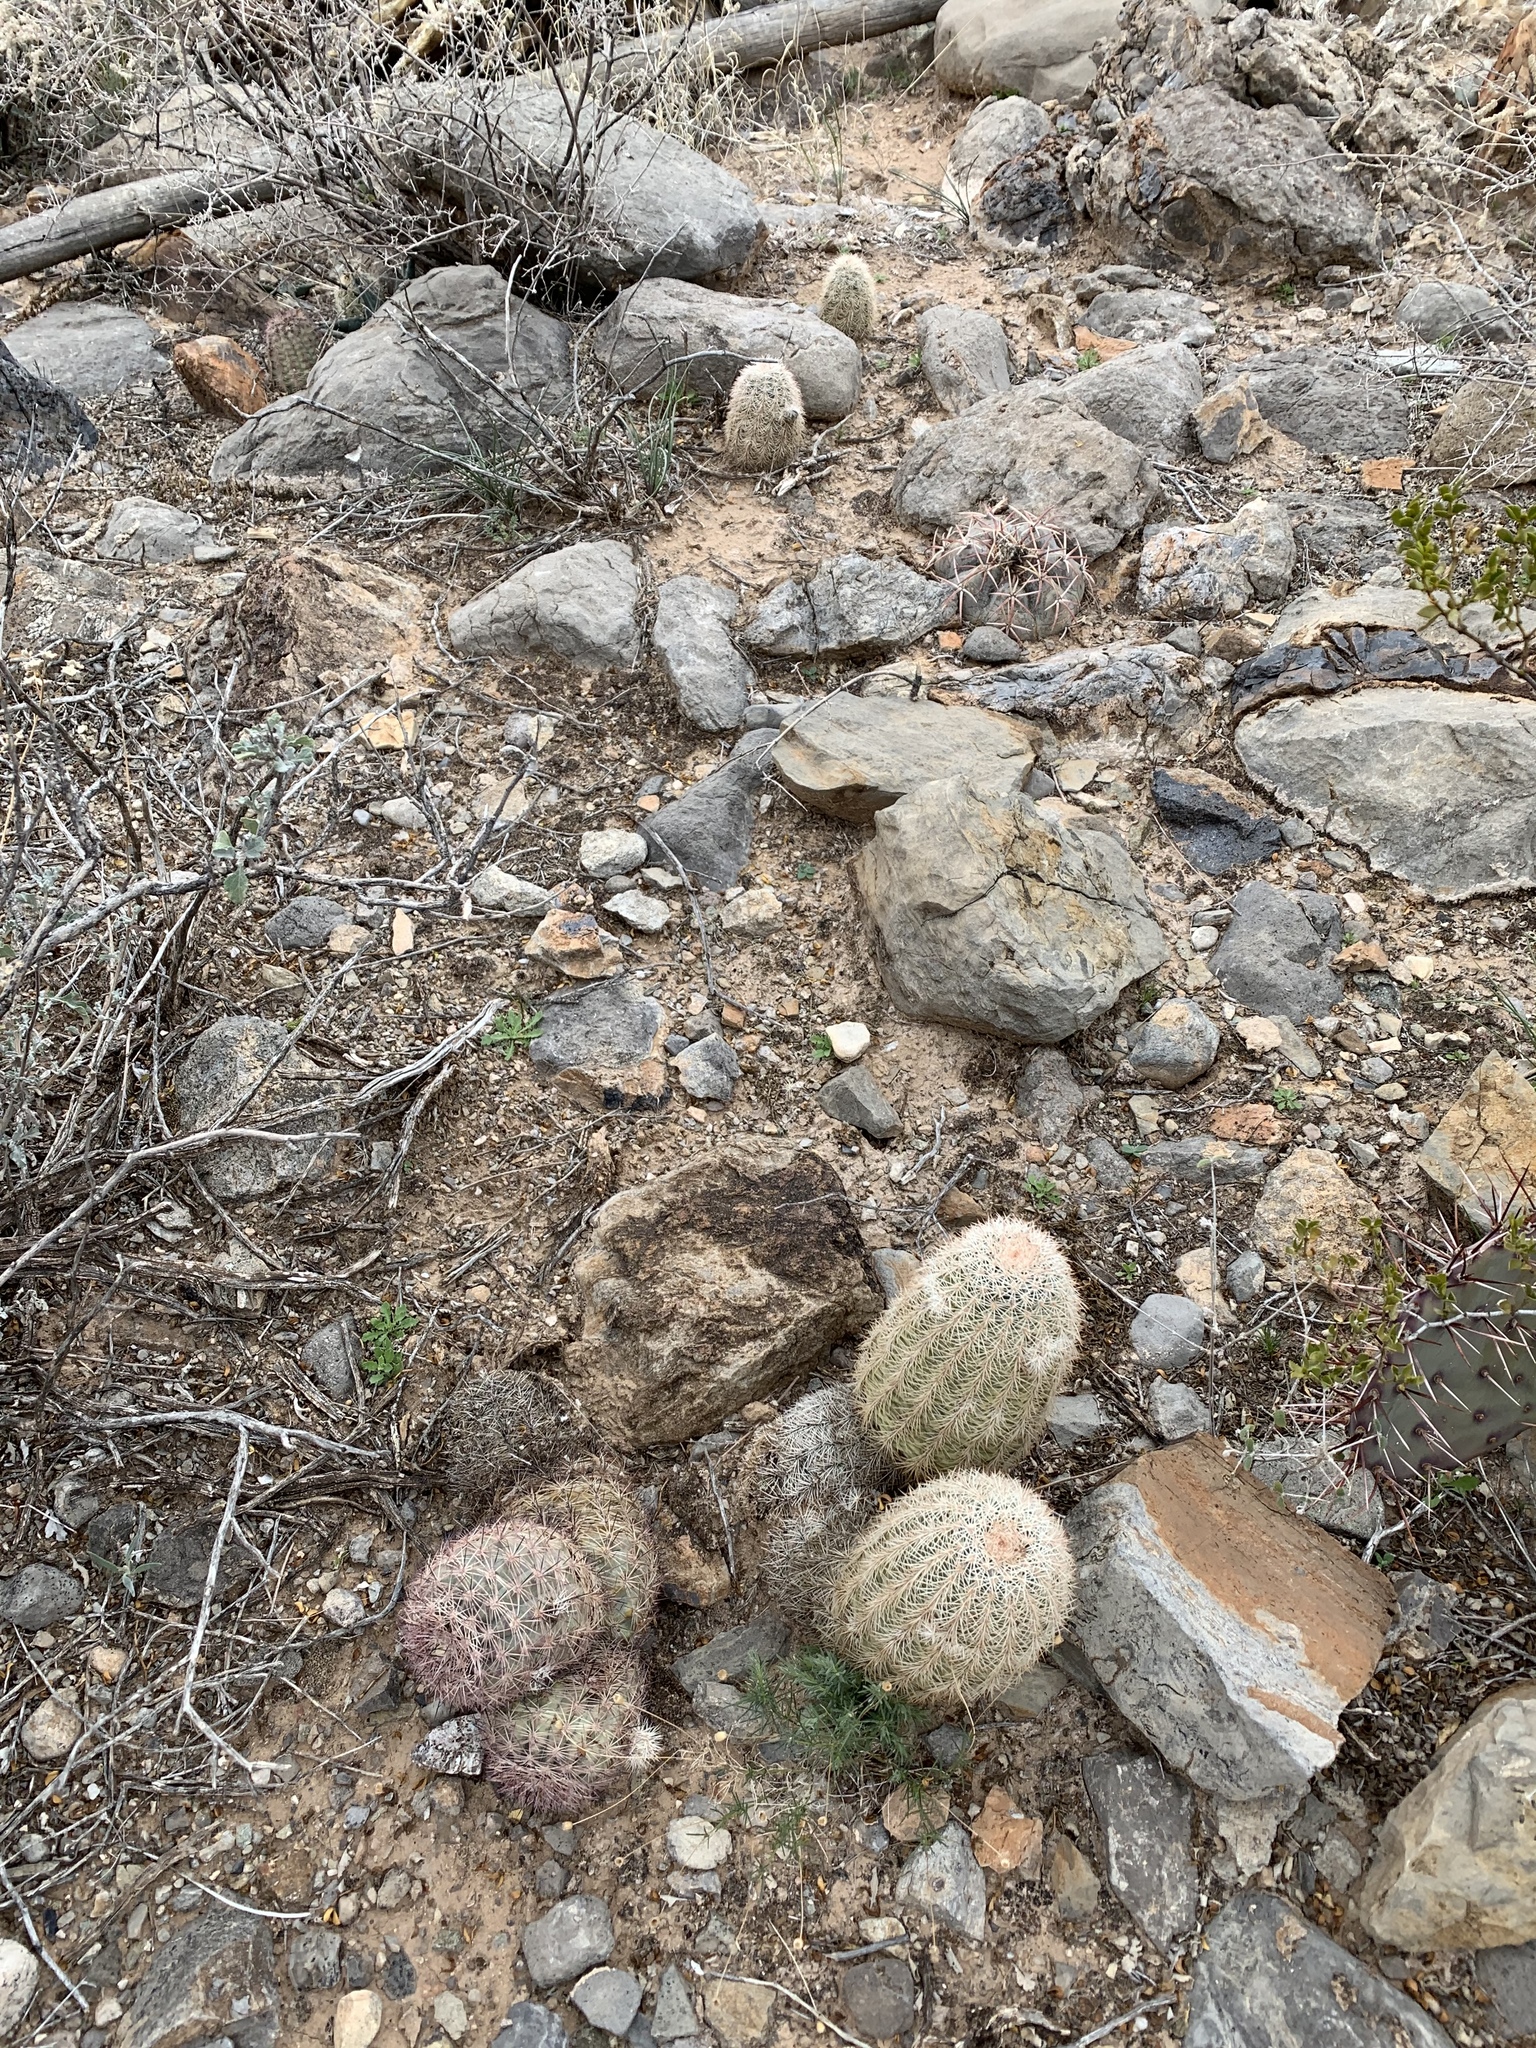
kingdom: Plantae
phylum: Tracheophyta
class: Magnoliopsida
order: Caryophyllales
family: Cactaceae
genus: Echinocereus
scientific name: Echinocereus dasyacanthus
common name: Spiny hedgehog cactus
